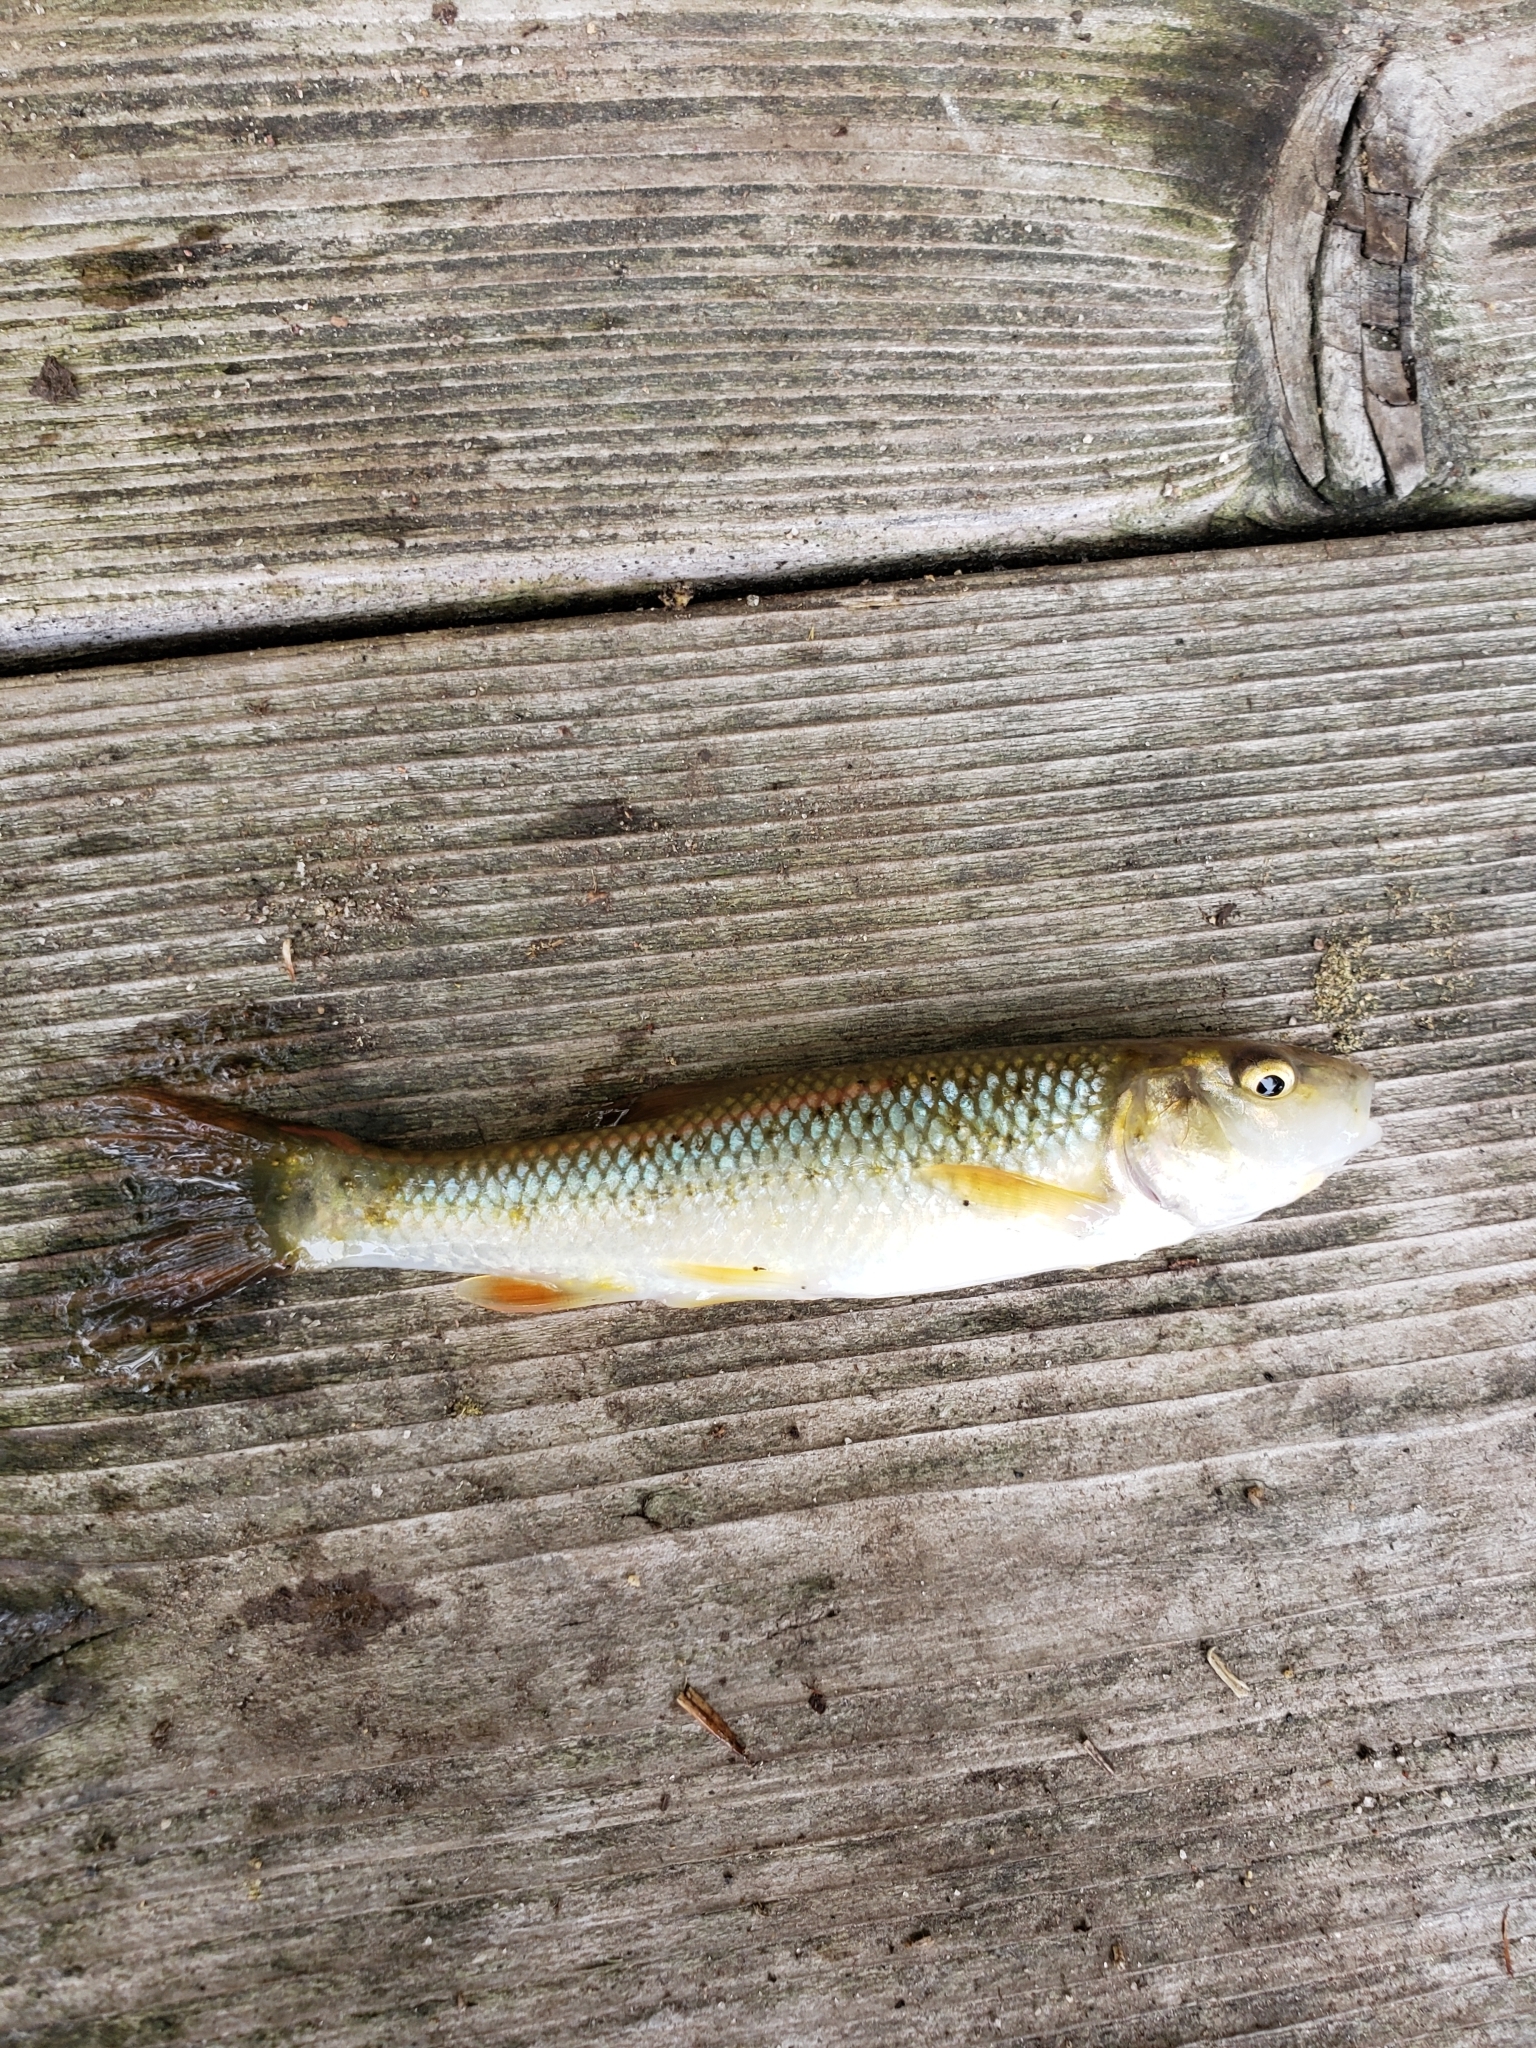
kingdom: Animalia
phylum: Chordata
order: Cypriniformes
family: Cyprinidae
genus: Nocomis
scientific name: Nocomis biguttatus
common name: Hornyhead chub
